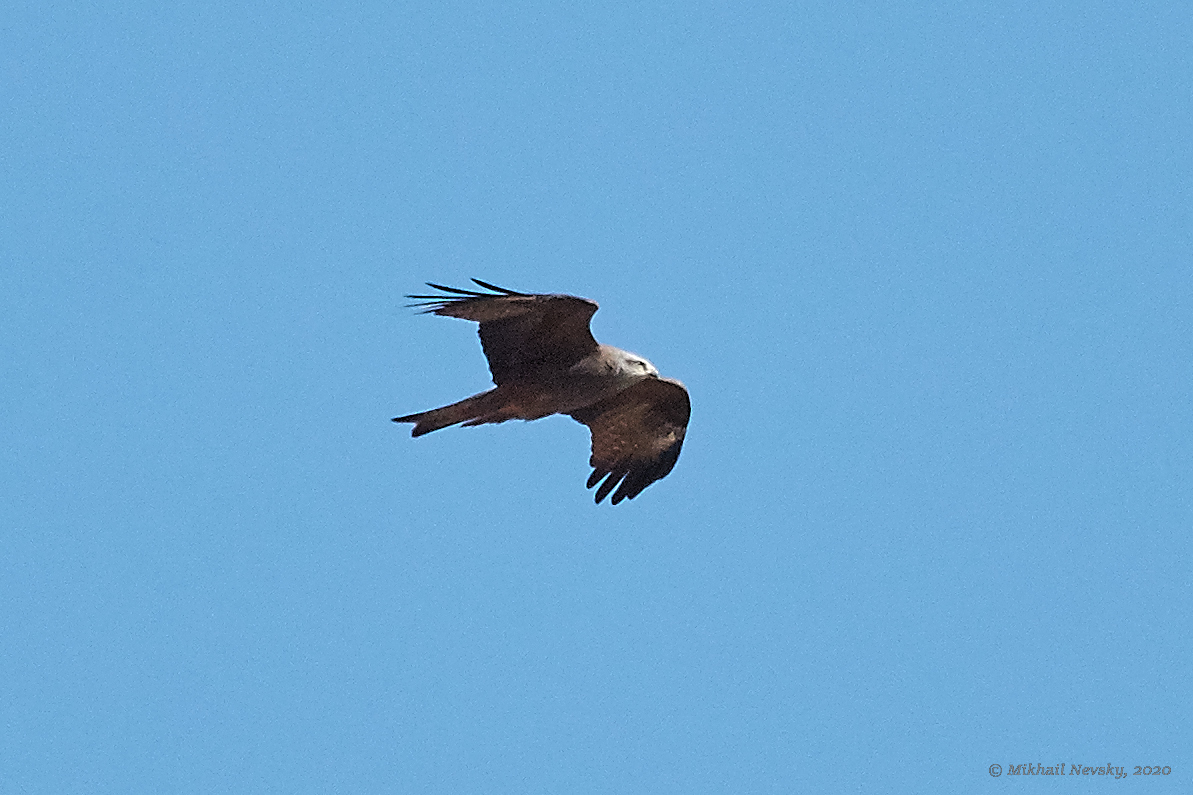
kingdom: Animalia
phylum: Chordata
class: Aves
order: Accipitriformes
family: Accipitridae
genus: Milvus
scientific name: Milvus migrans
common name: Black kite
